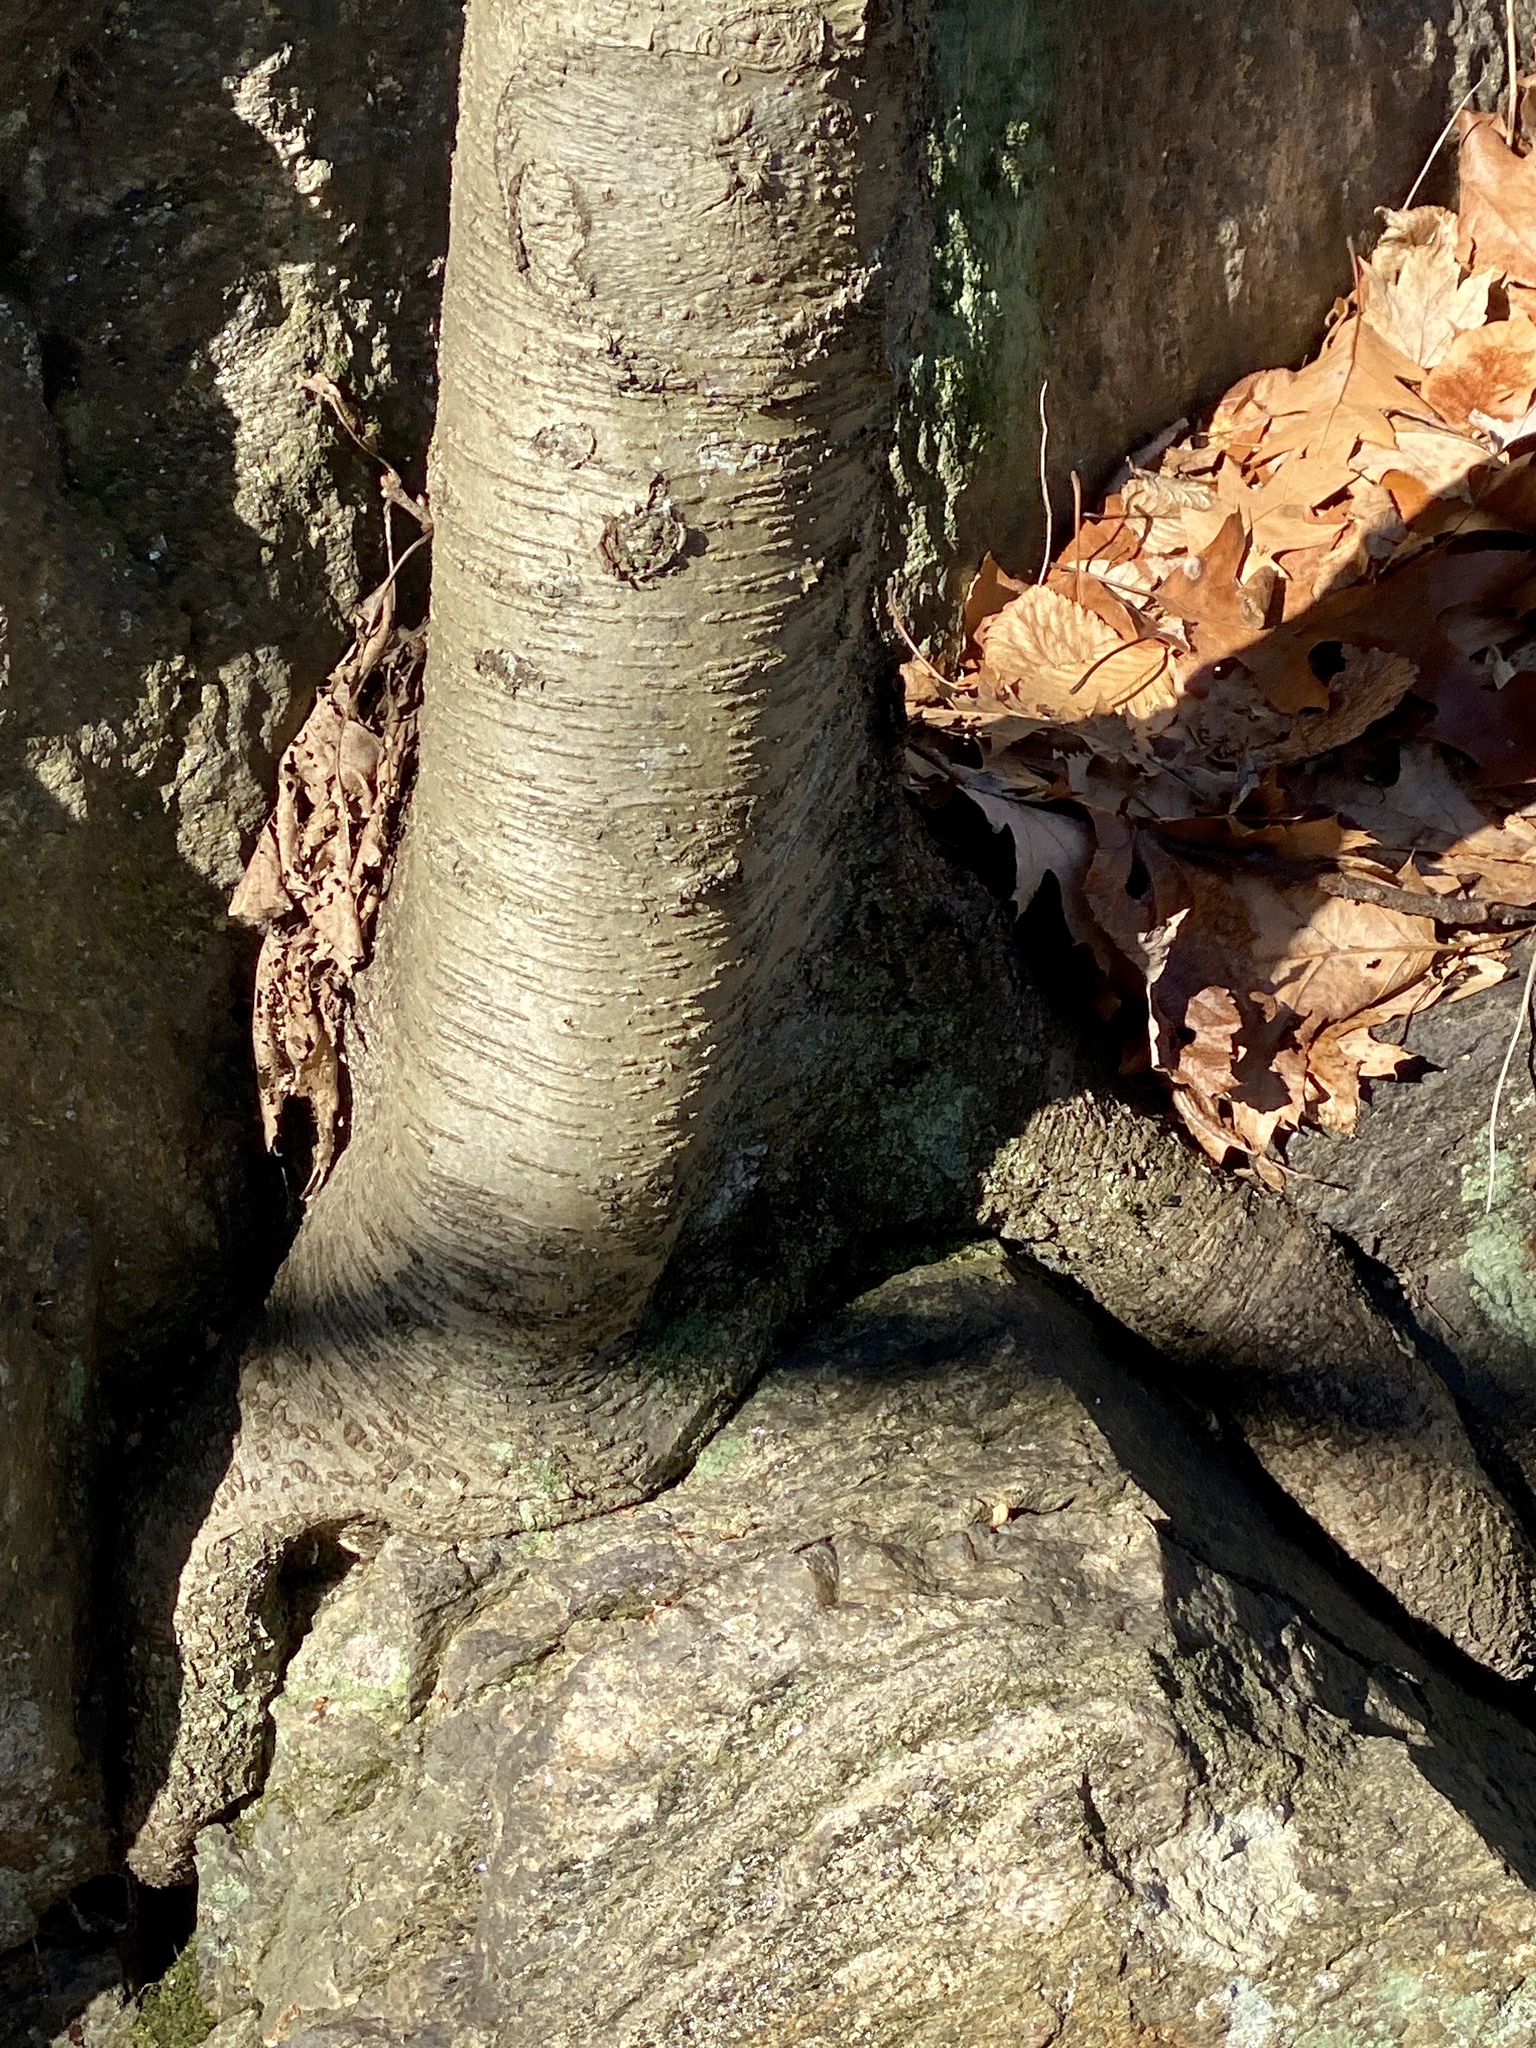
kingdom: Plantae
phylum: Tracheophyta
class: Magnoliopsida
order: Fagales
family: Betulaceae
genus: Betula
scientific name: Betula lenta
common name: Black birch
